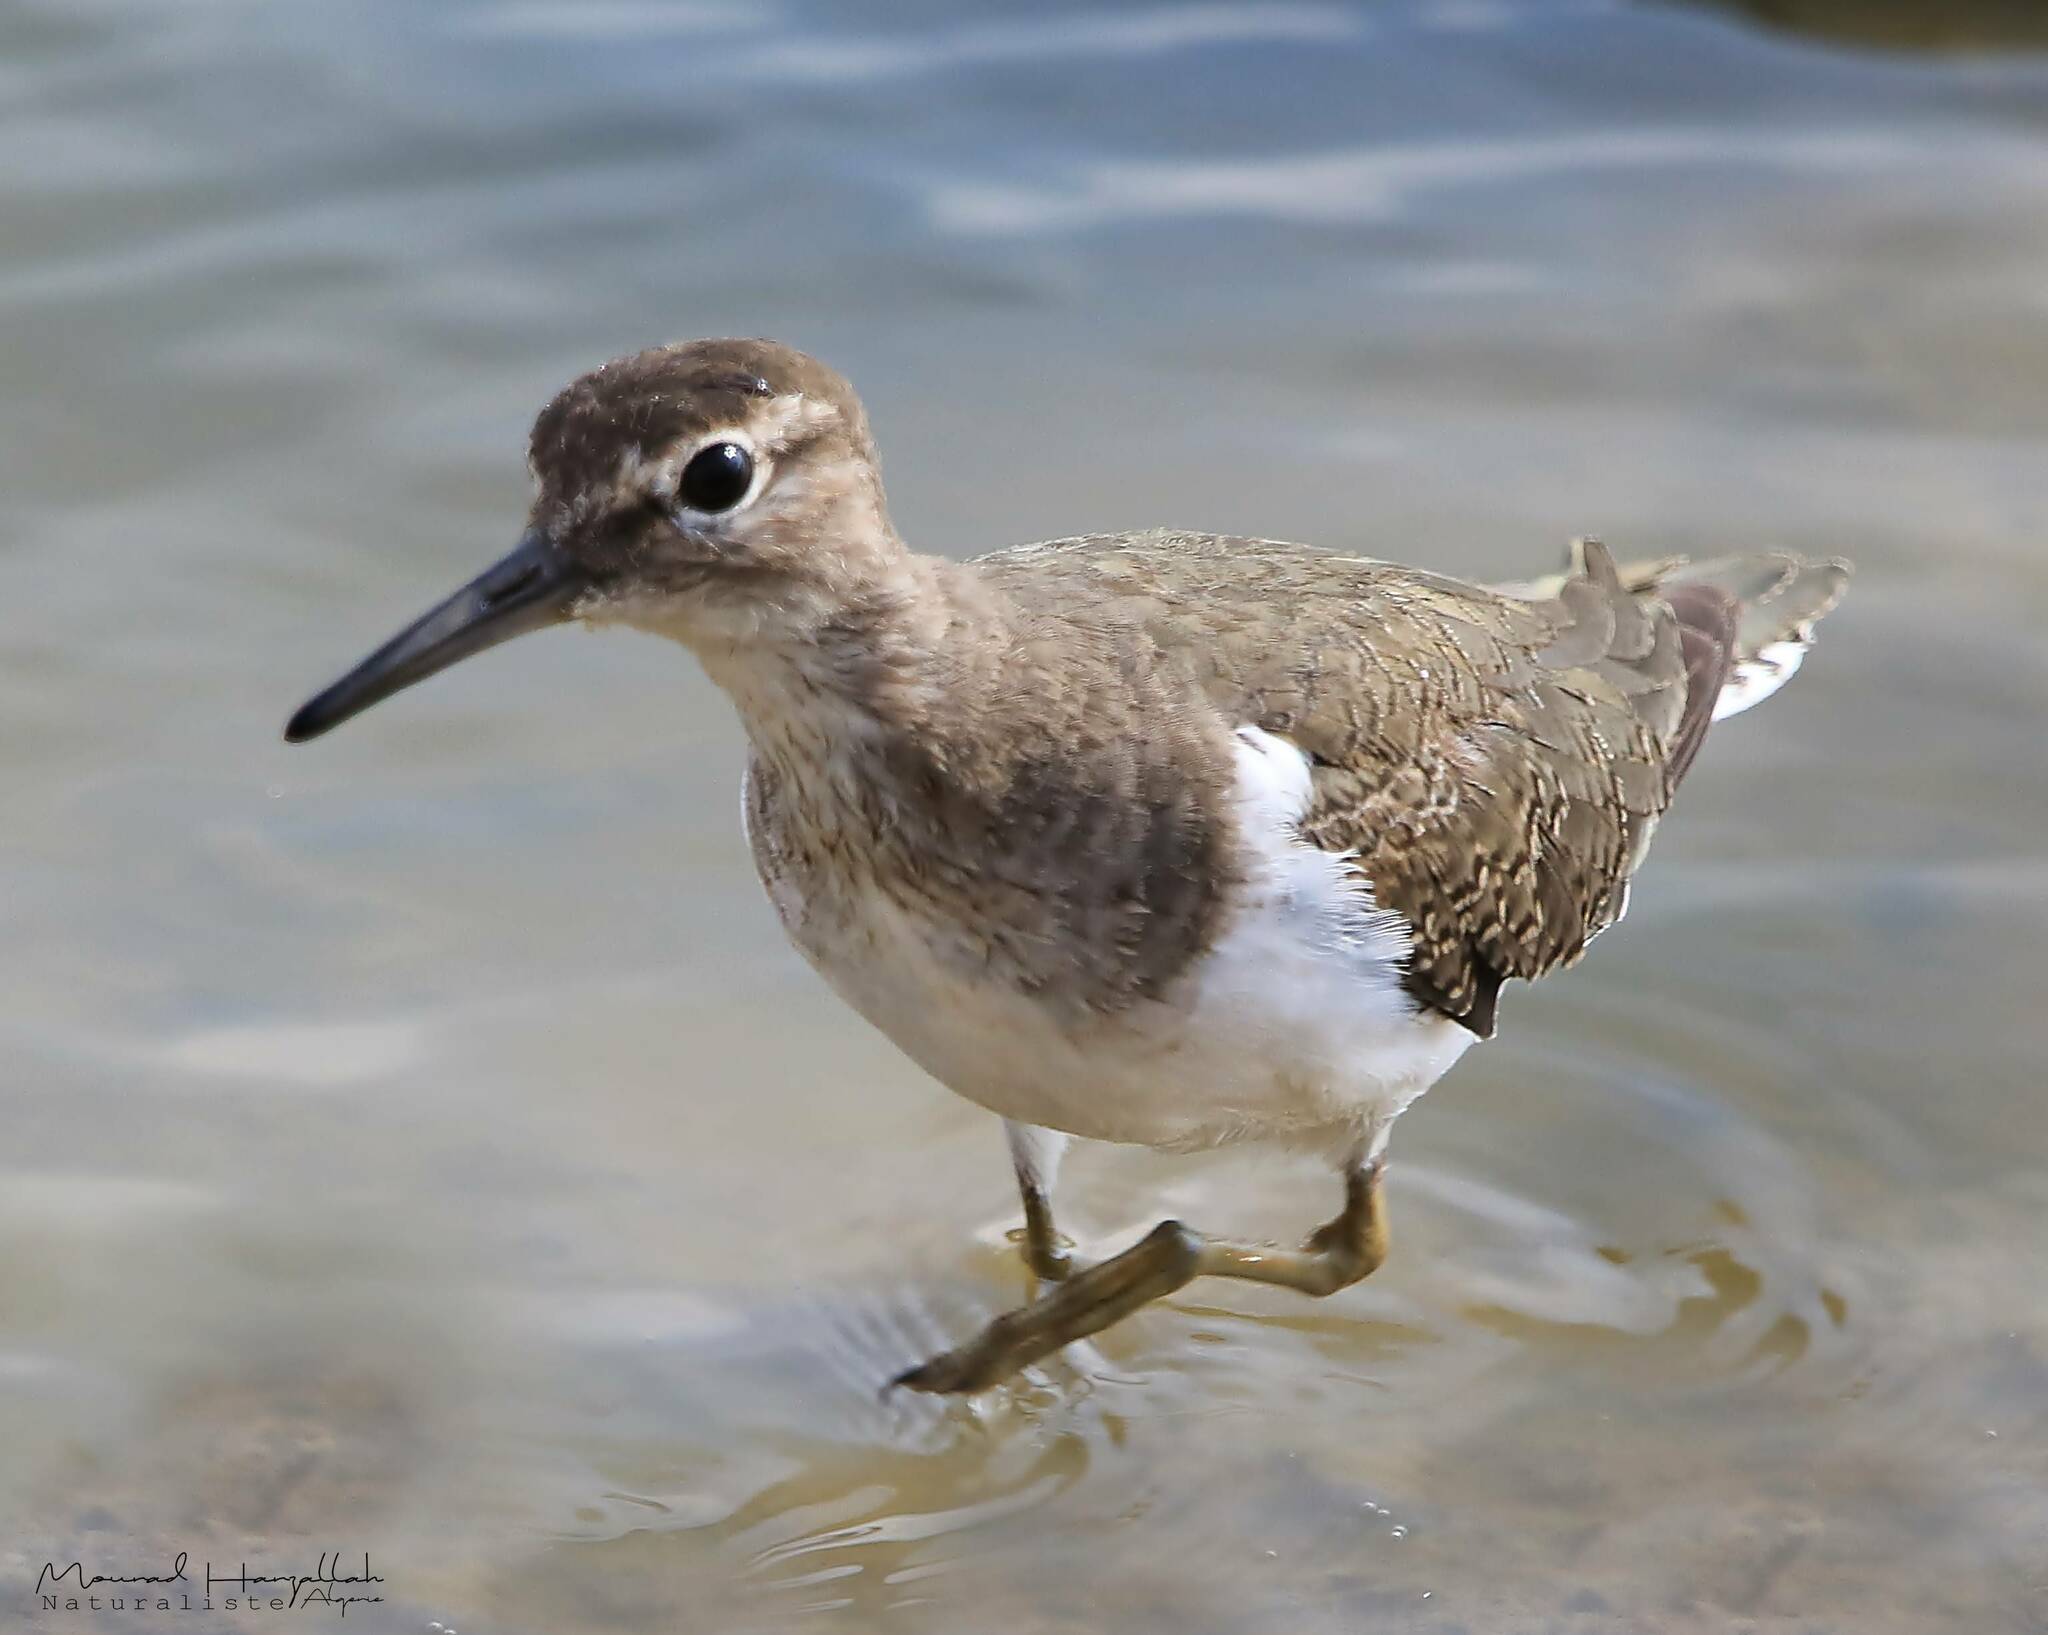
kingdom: Animalia
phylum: Chordata
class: Aves
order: Charadriiformes
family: Scolopacidae
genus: Actitis
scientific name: Actitis hypoleucos
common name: Common sandpiper
